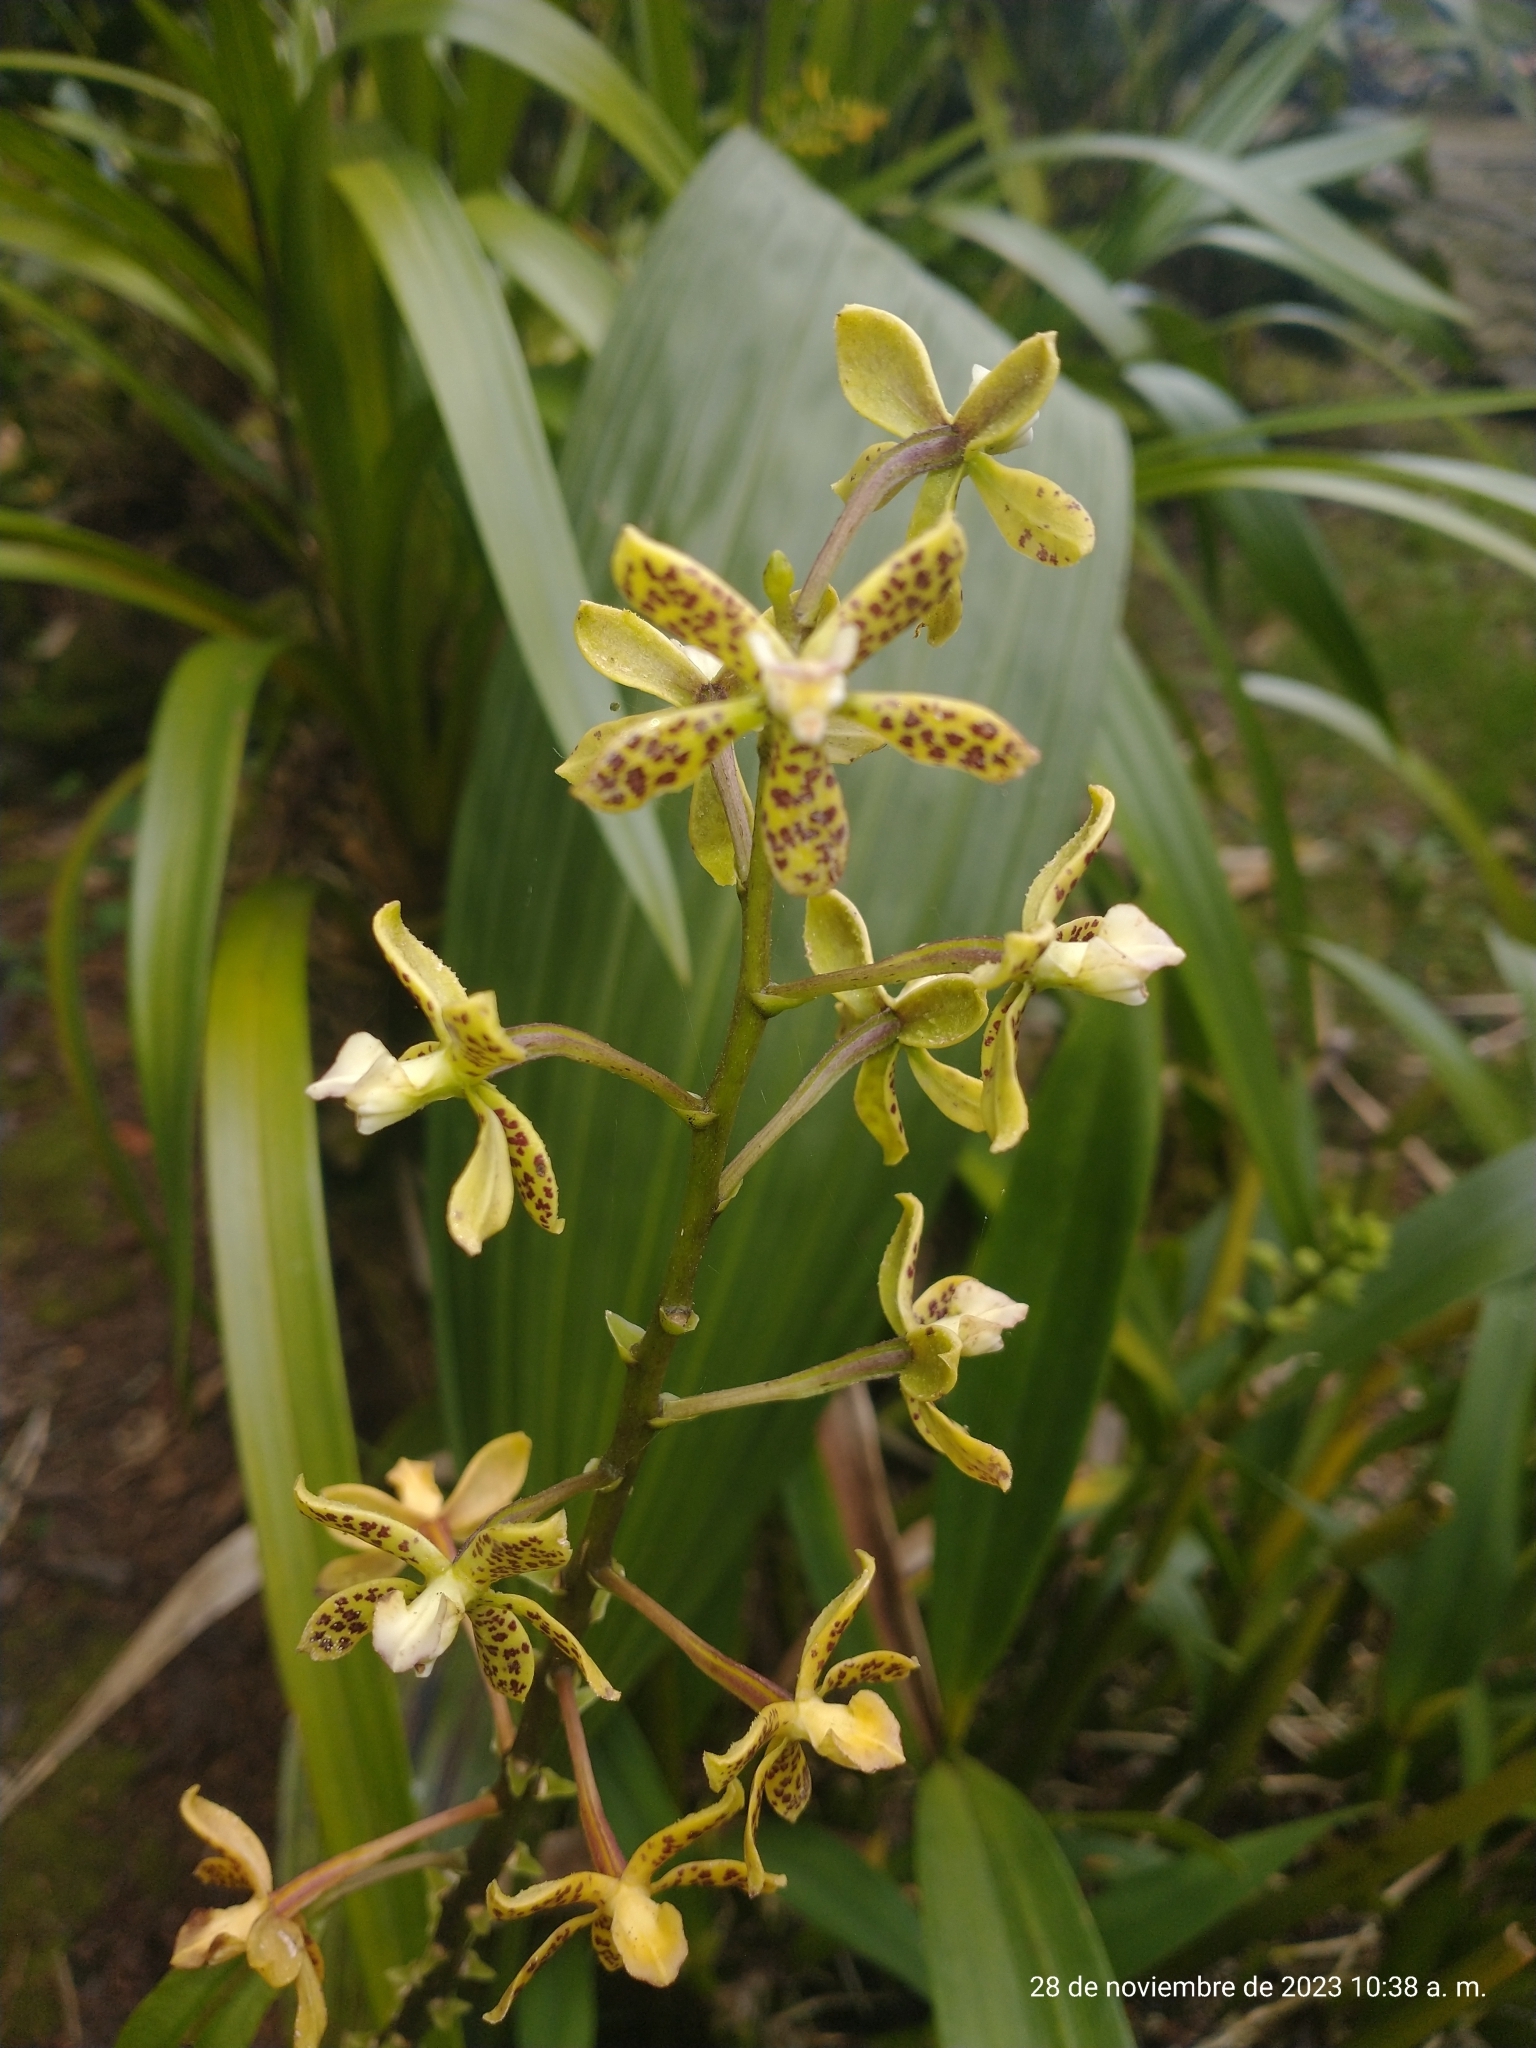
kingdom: Plantae
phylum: Tracheophyta
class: Liliopsida
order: Asparagales
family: Orchidaceae
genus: Prosthechea
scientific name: Prosthechea crassilabia
